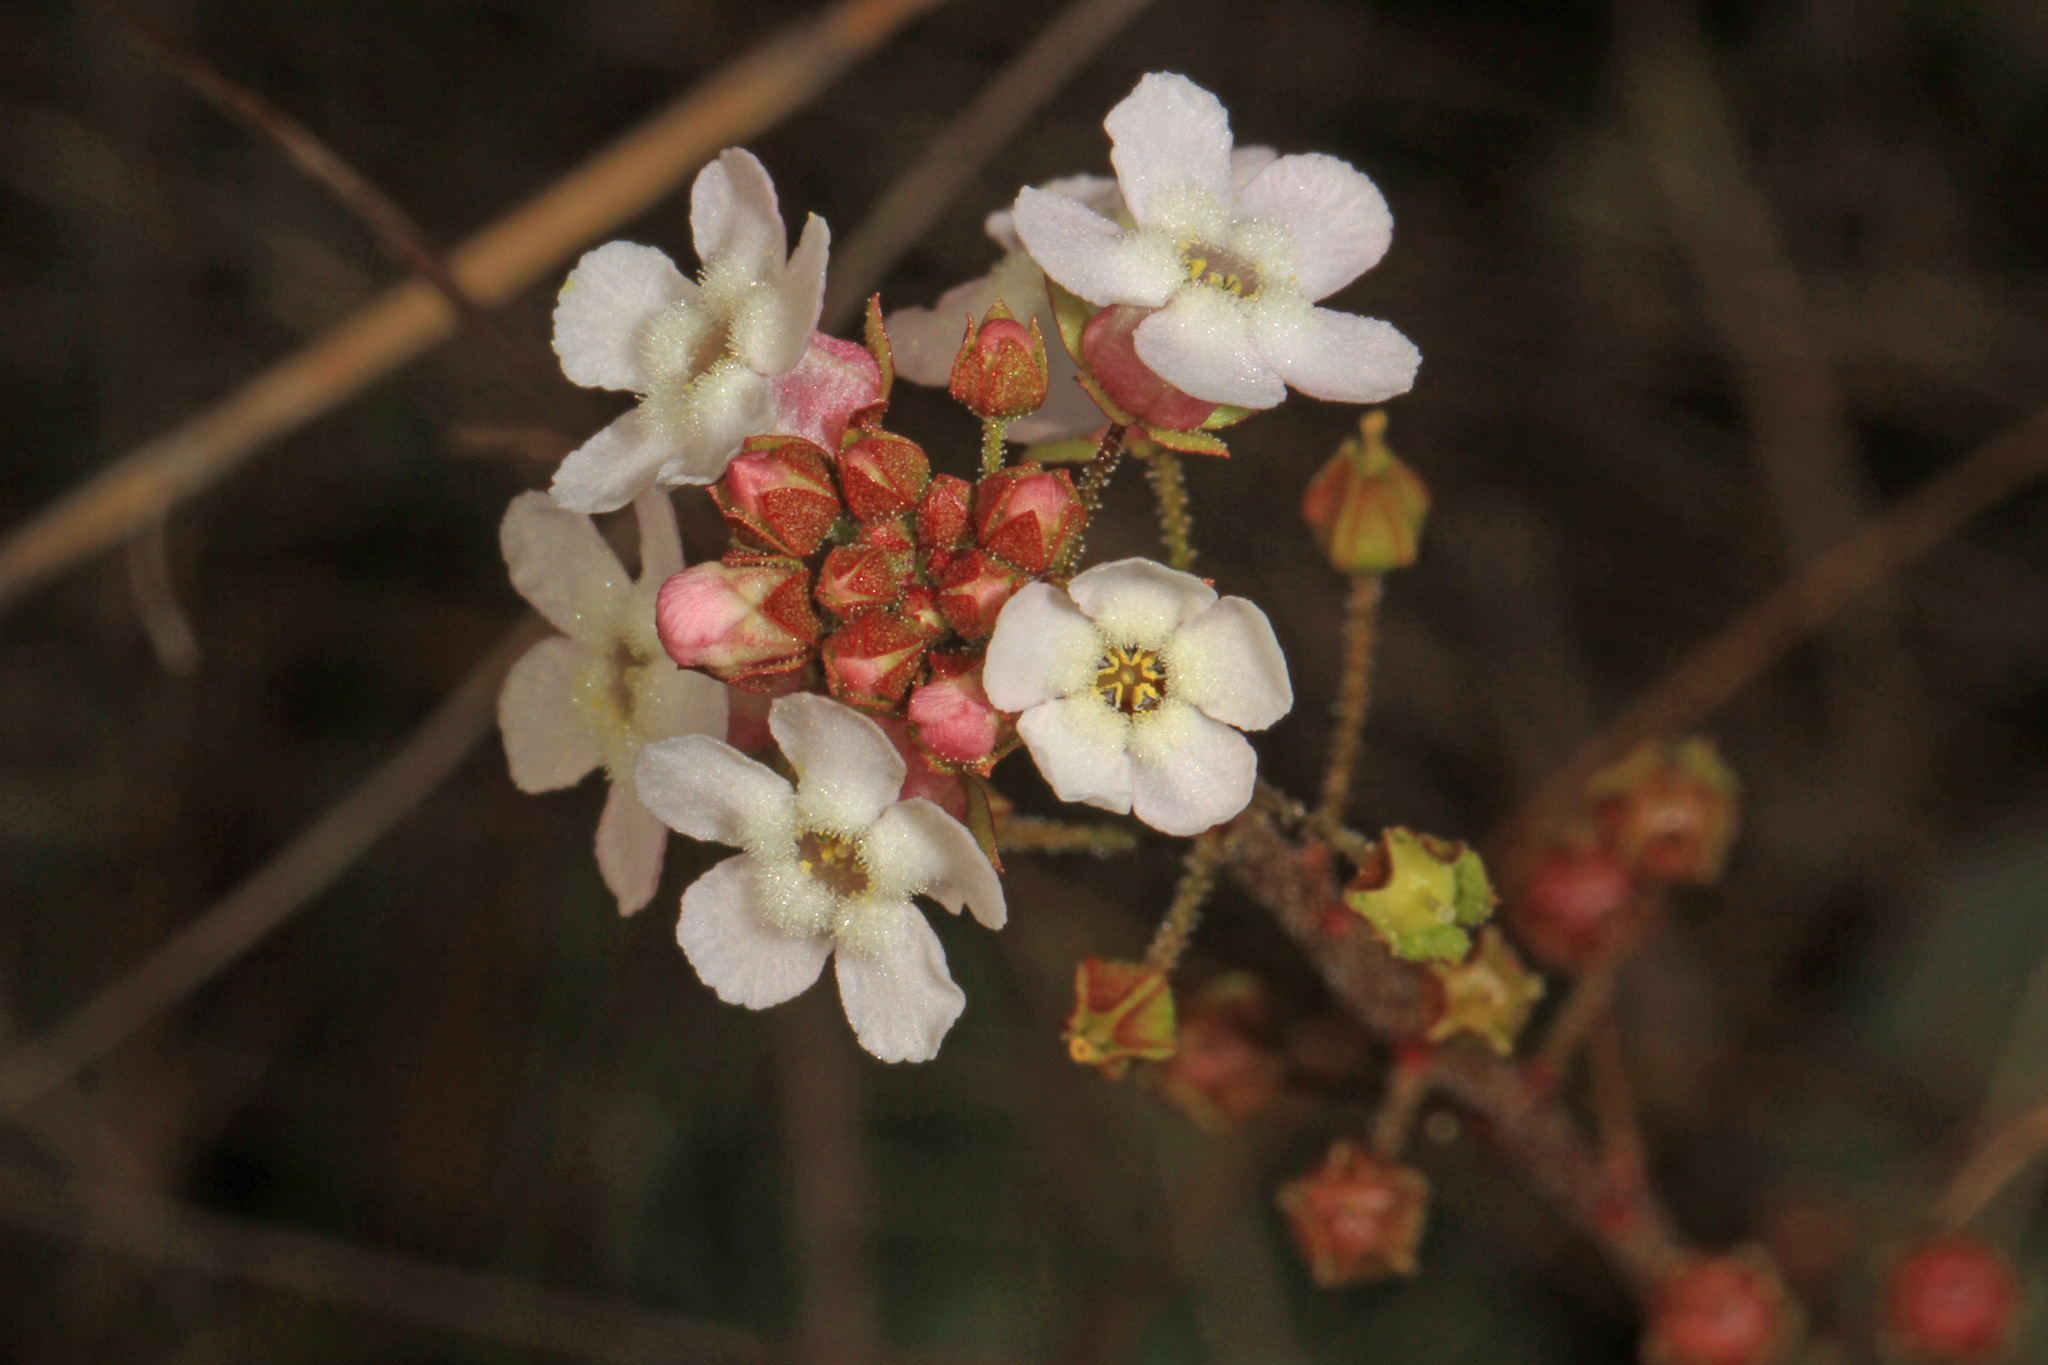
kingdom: Plantae
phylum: Tracheophyta
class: Magnoliopsida
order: Ericales
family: Primulaceae
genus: Samolus
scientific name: Samolus ebracteatus
